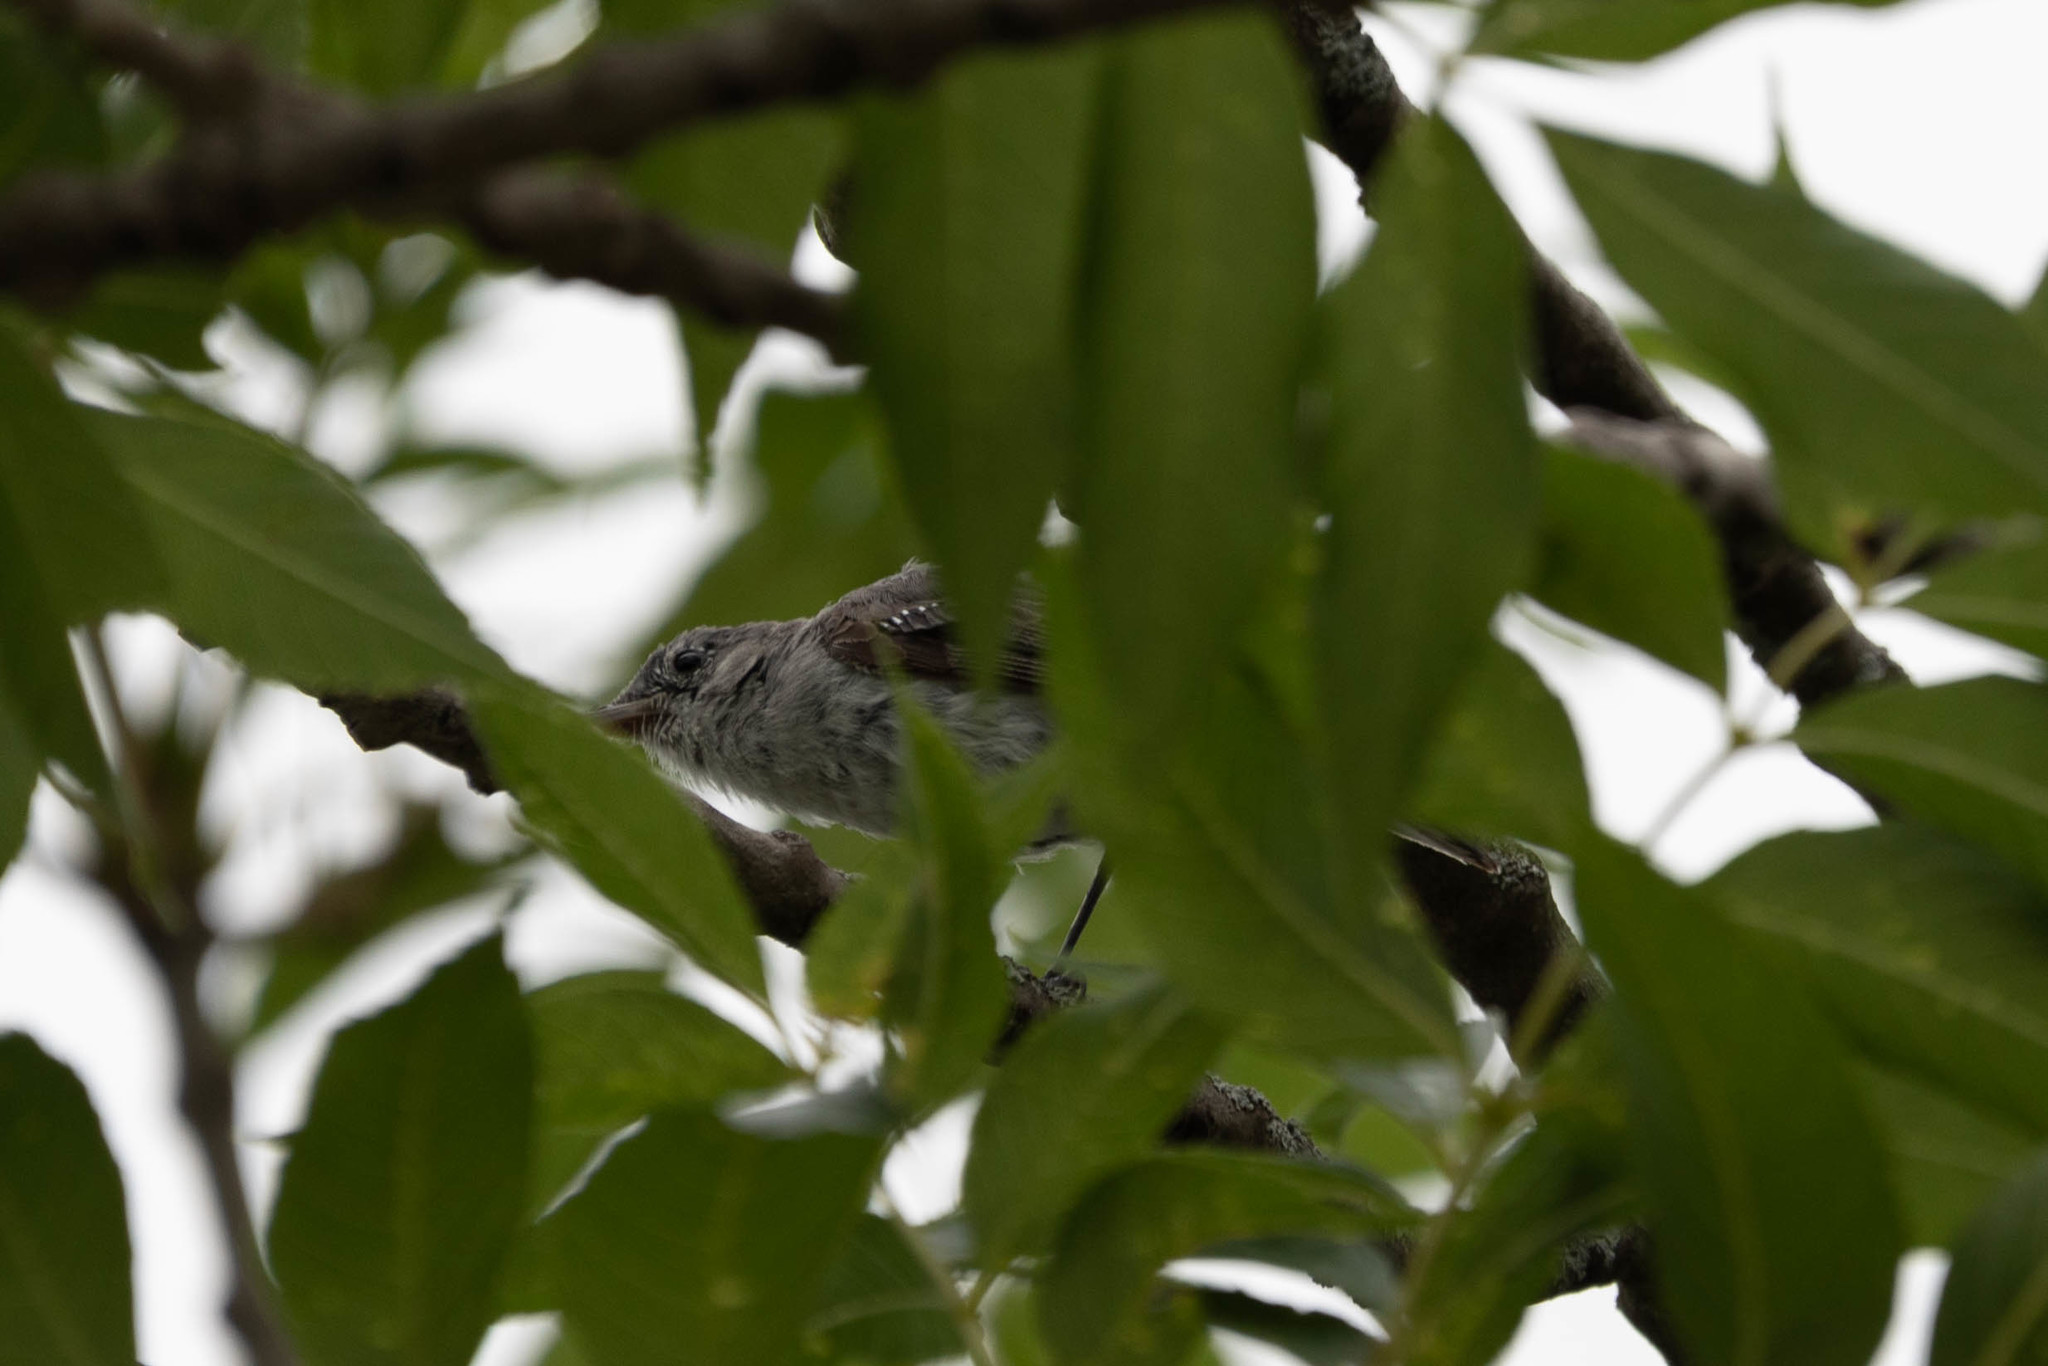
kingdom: Animalia
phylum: Chordata
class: Aves
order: Passeriformes
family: Polioptilidae
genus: Polioptila
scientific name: Polioptila caerulea
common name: Blue-gray gnatcatcher
